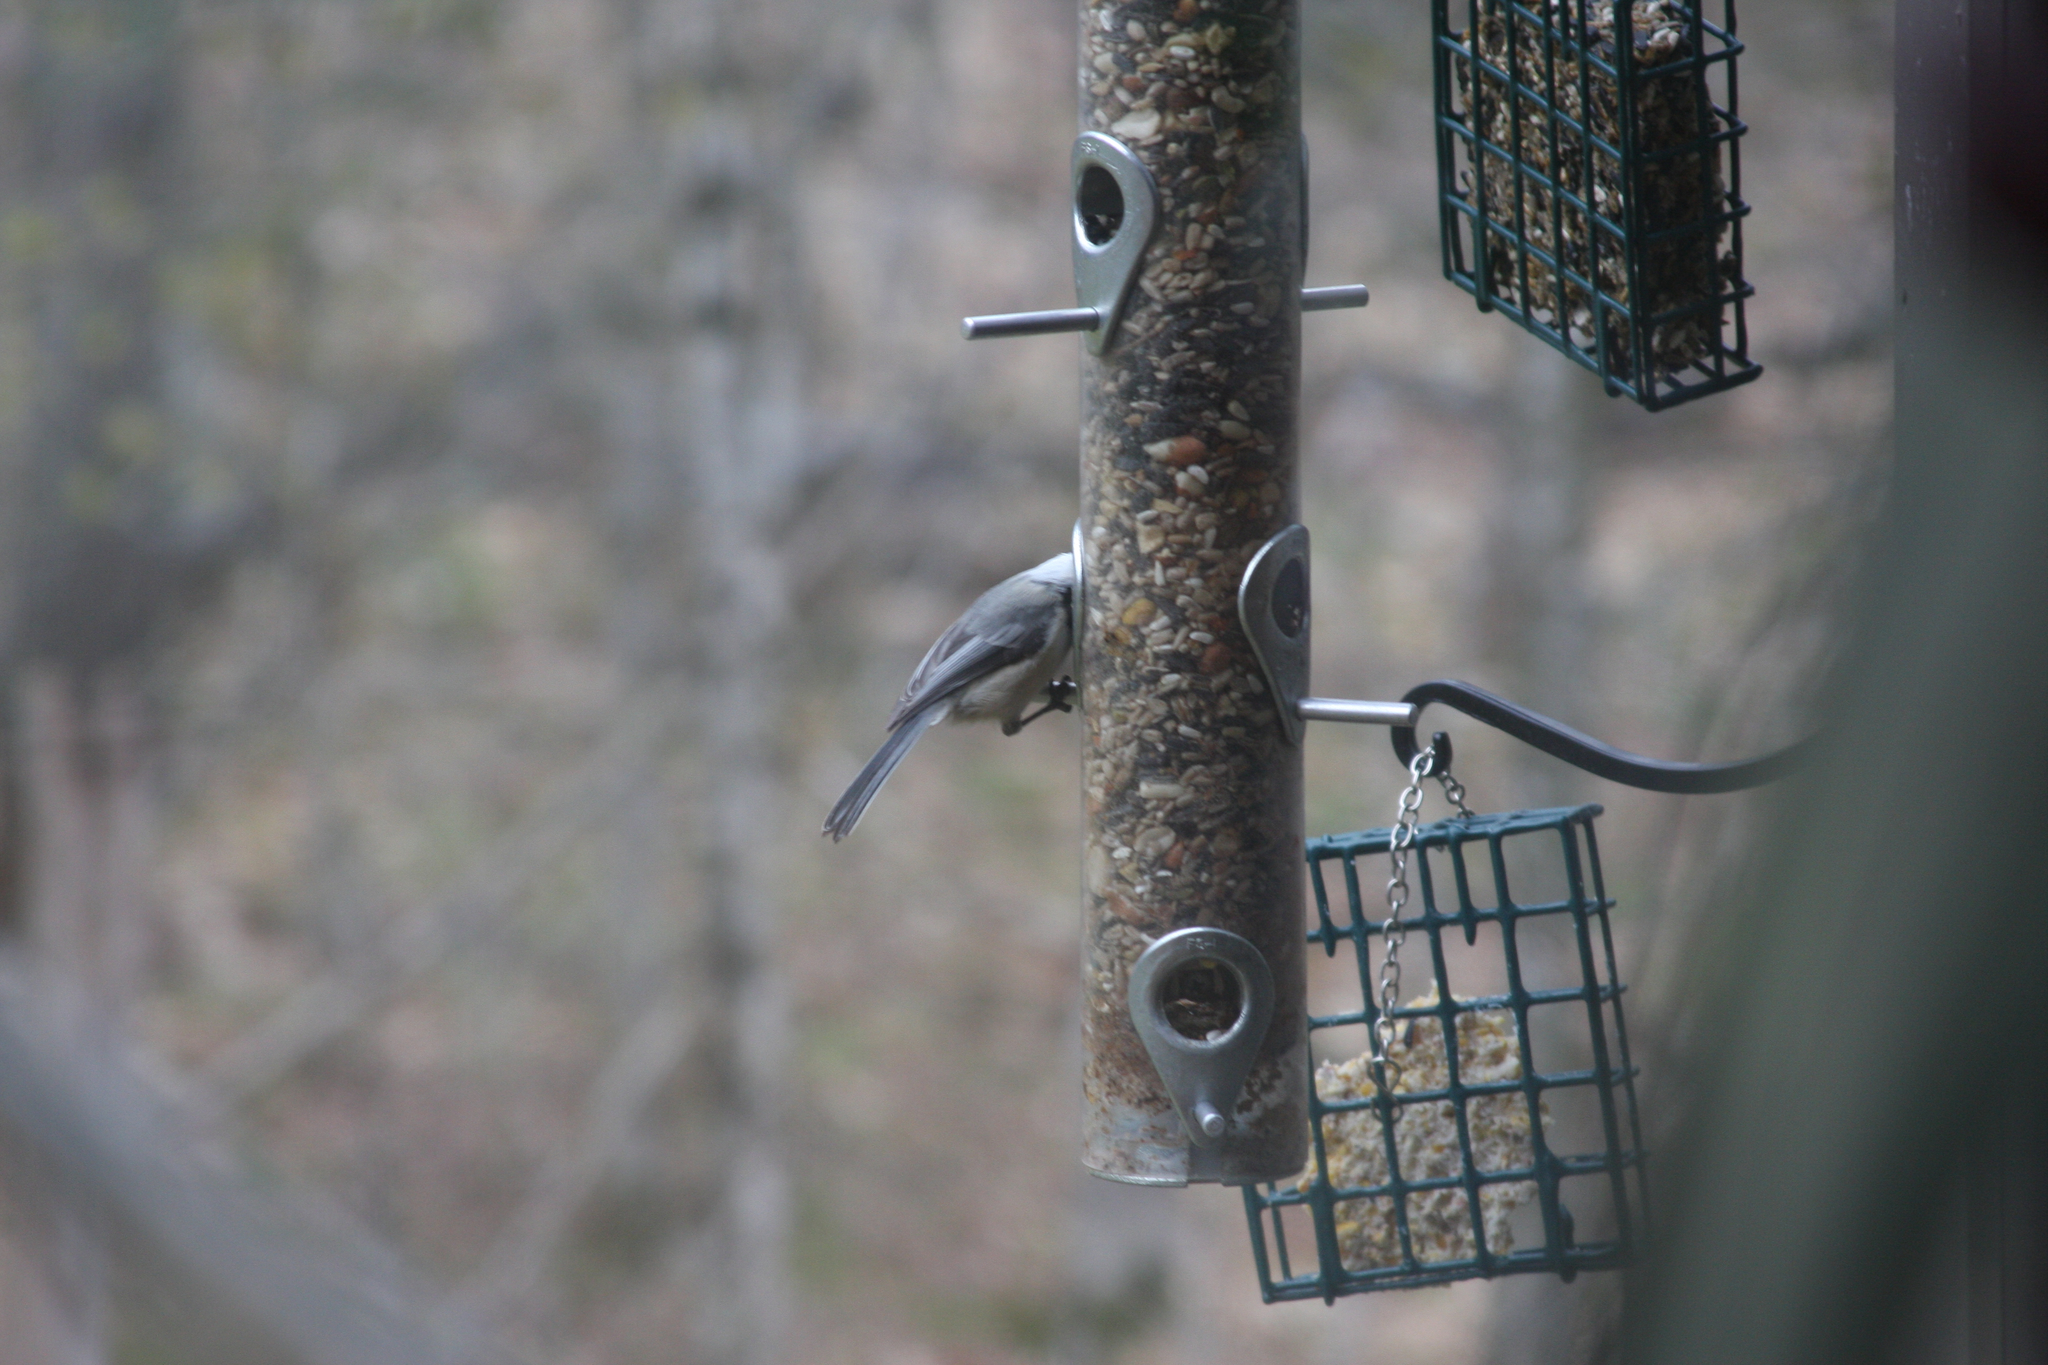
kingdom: Animalia
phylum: Chordata
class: Aves
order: Passeriformes
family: Paridae
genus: Poecile
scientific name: Poecile atricapillus
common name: Black-capped chickadee
